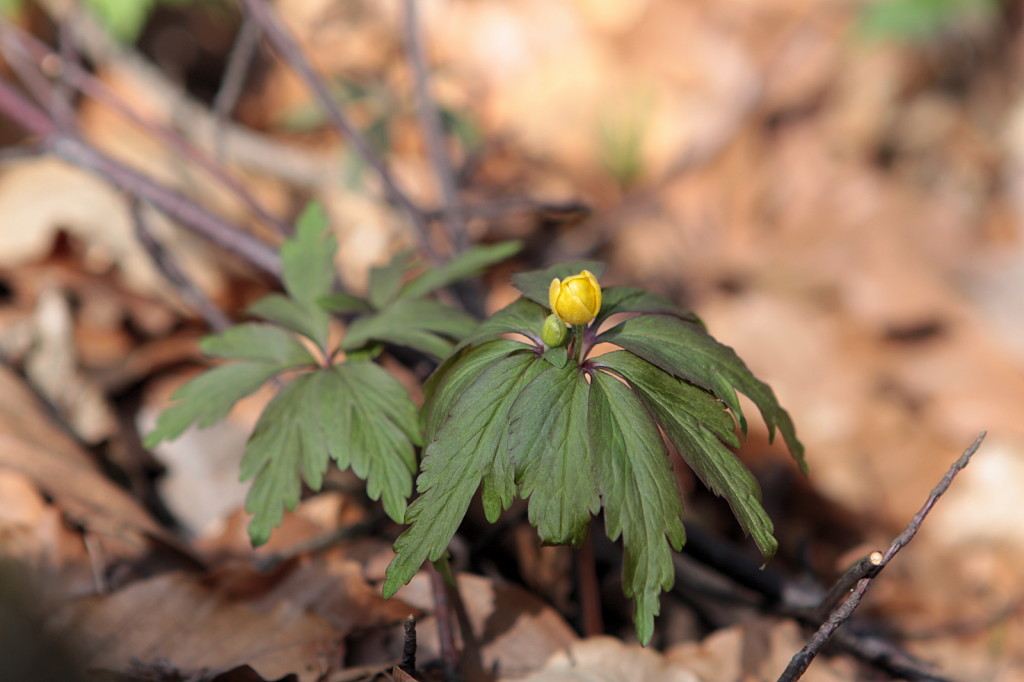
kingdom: Plantae
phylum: Tracheophyta
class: Magnoliopsida
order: Ranunculales
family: Ranunculaceae
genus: Anemone
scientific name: Anemone ranunculoides
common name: Yellow anemone
